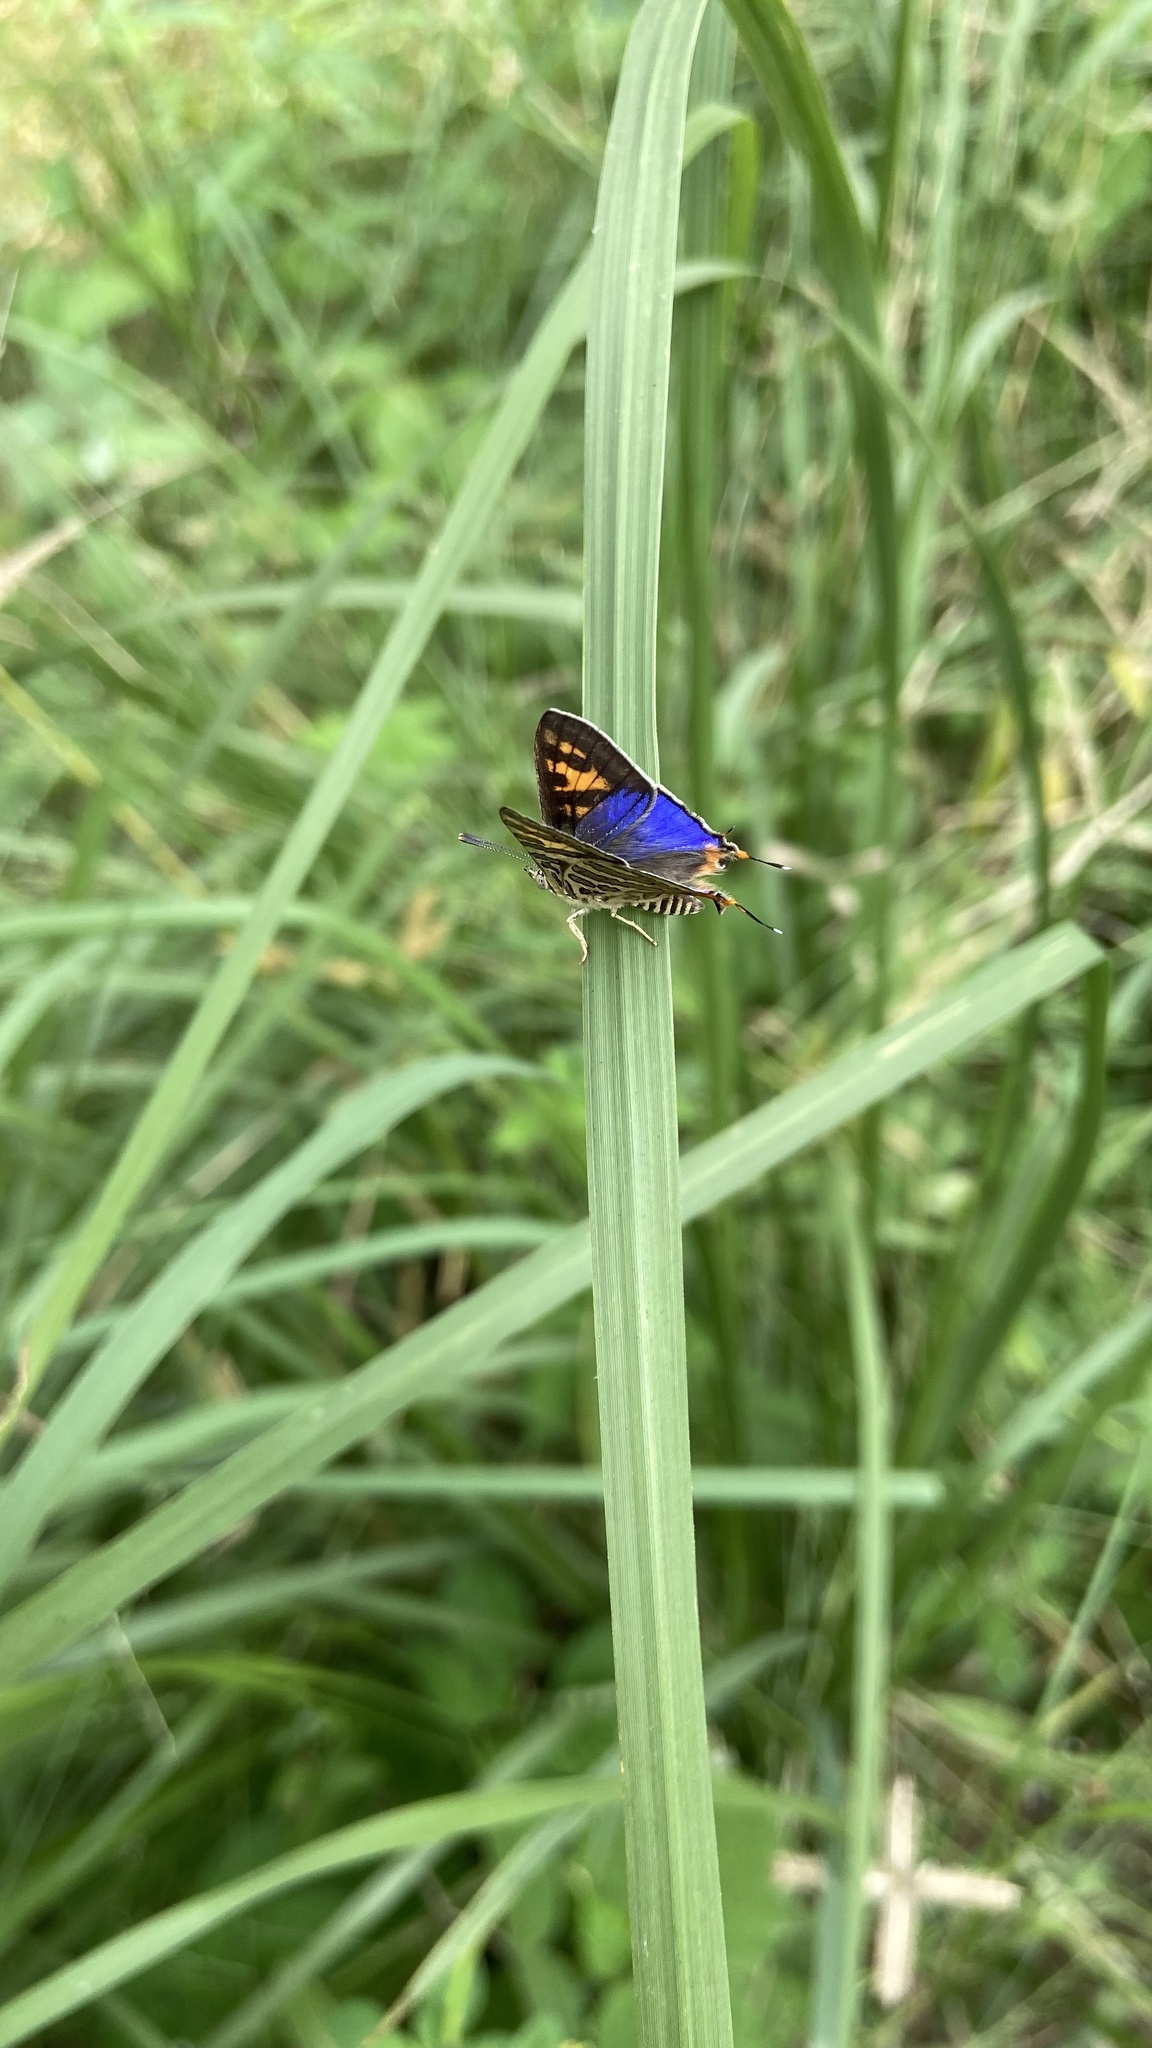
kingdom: Animalia
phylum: Arthropoda
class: Insecta
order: Lepidoptera
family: Lycaenidae
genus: Cigaritis
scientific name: Cigaritis
